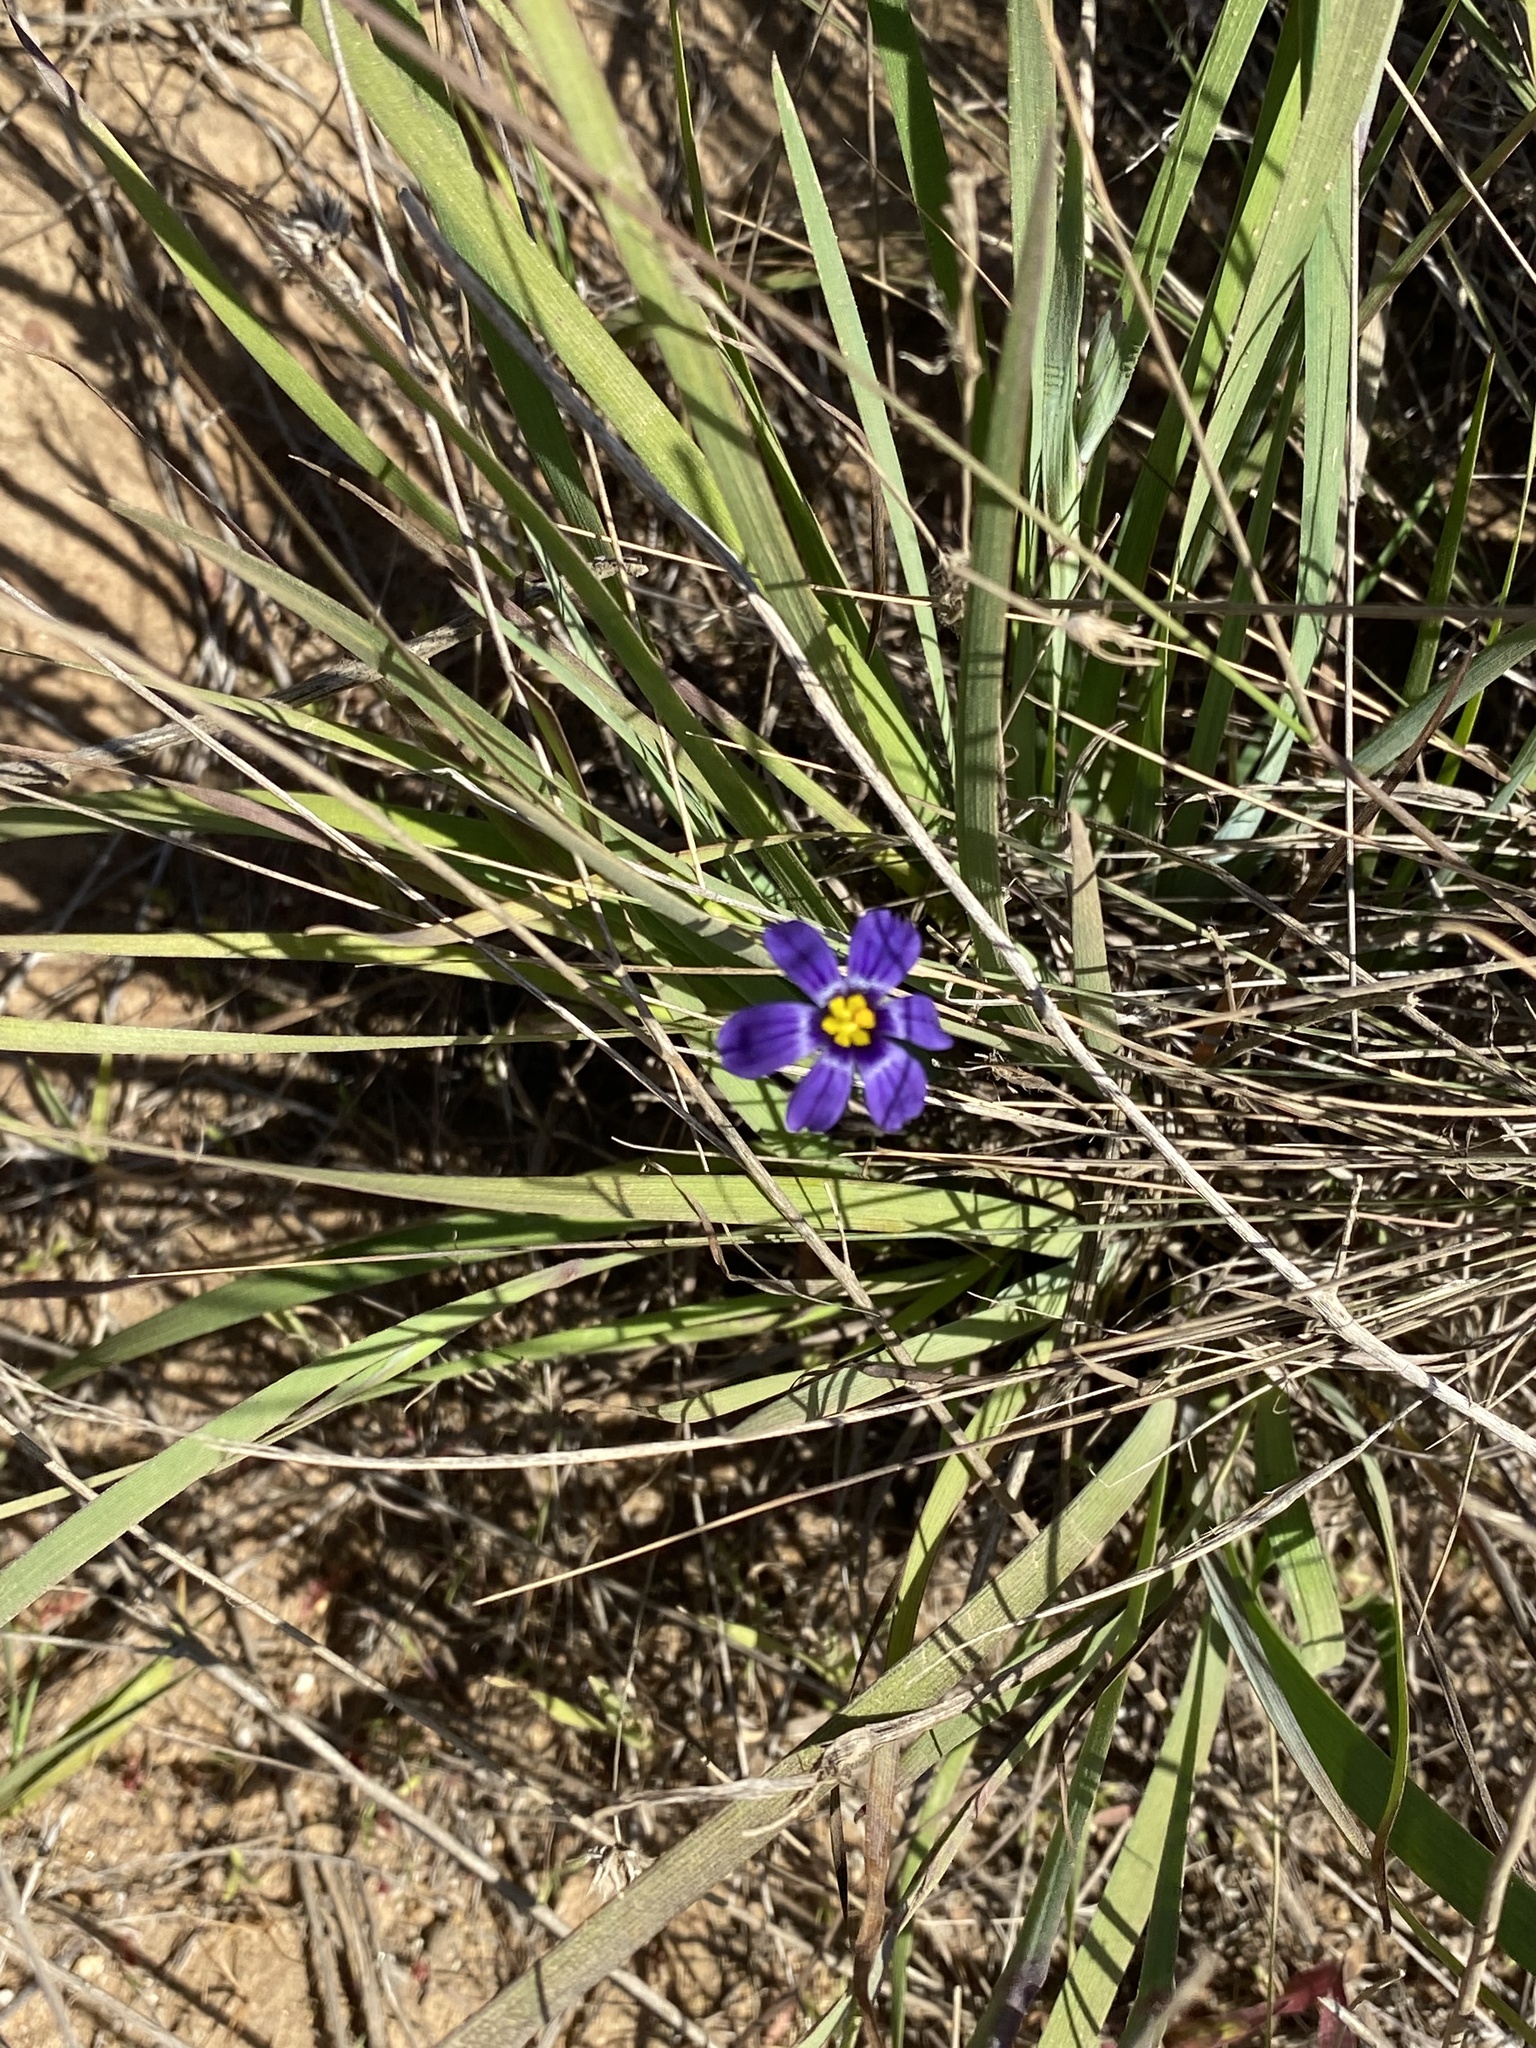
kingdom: Plantae
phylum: Tracheophyta
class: Liliopsida
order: Asparagales
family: Iridaceae
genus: Sisyrinchium
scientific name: Sisyrinchium bellum
